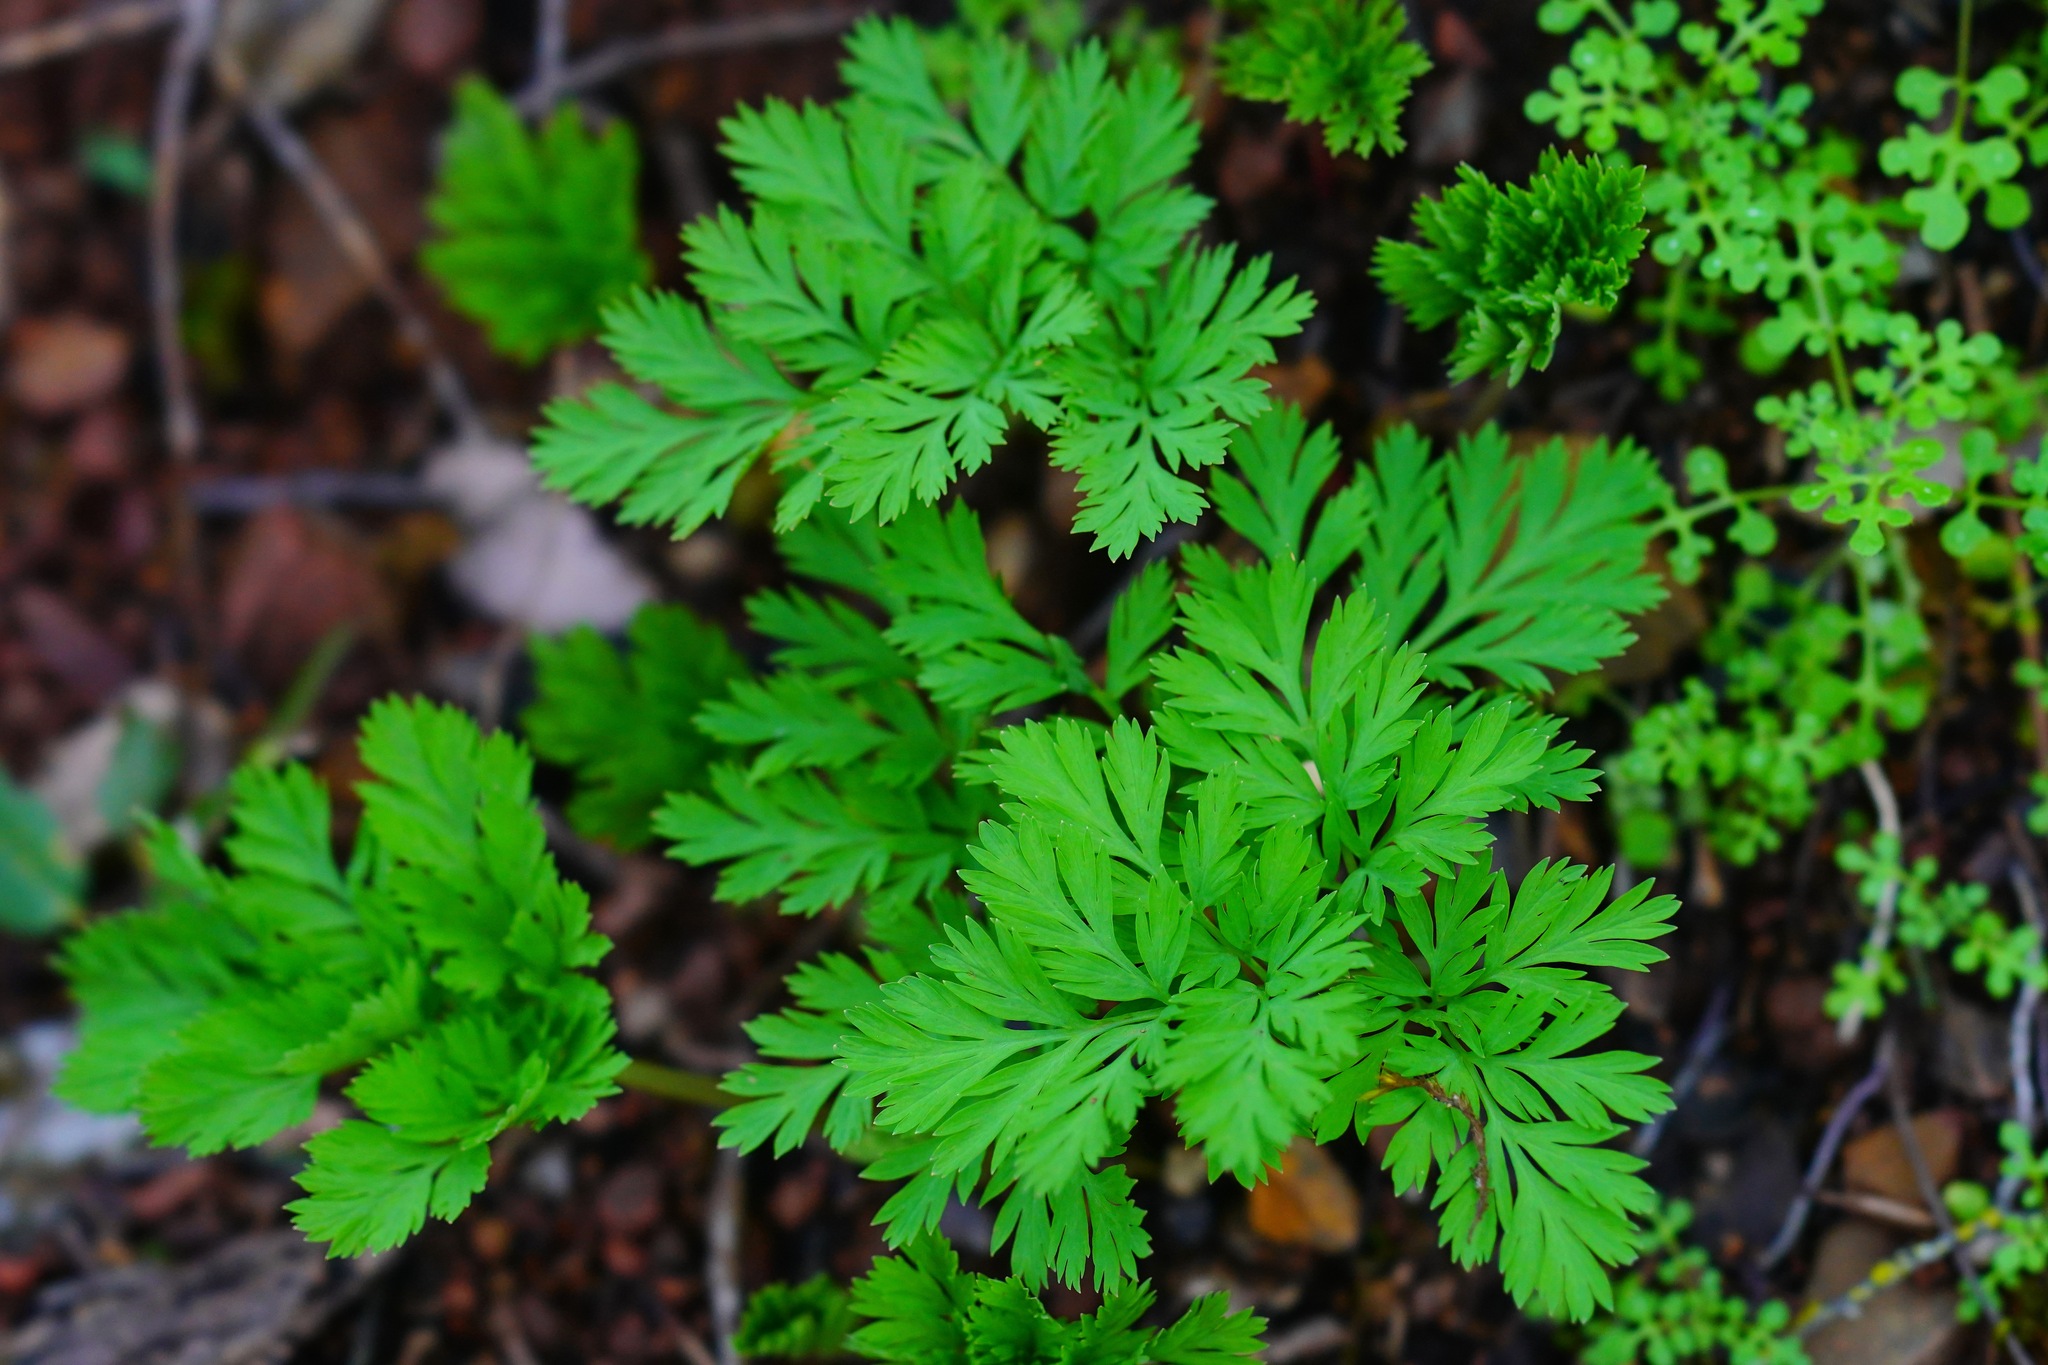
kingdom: Plantae
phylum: Tracheophyta
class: Magnoliopsida
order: Ranunculales
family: Papaveraceae
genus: Dicentra
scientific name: Dicentra formosa
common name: Bleeding-heart
